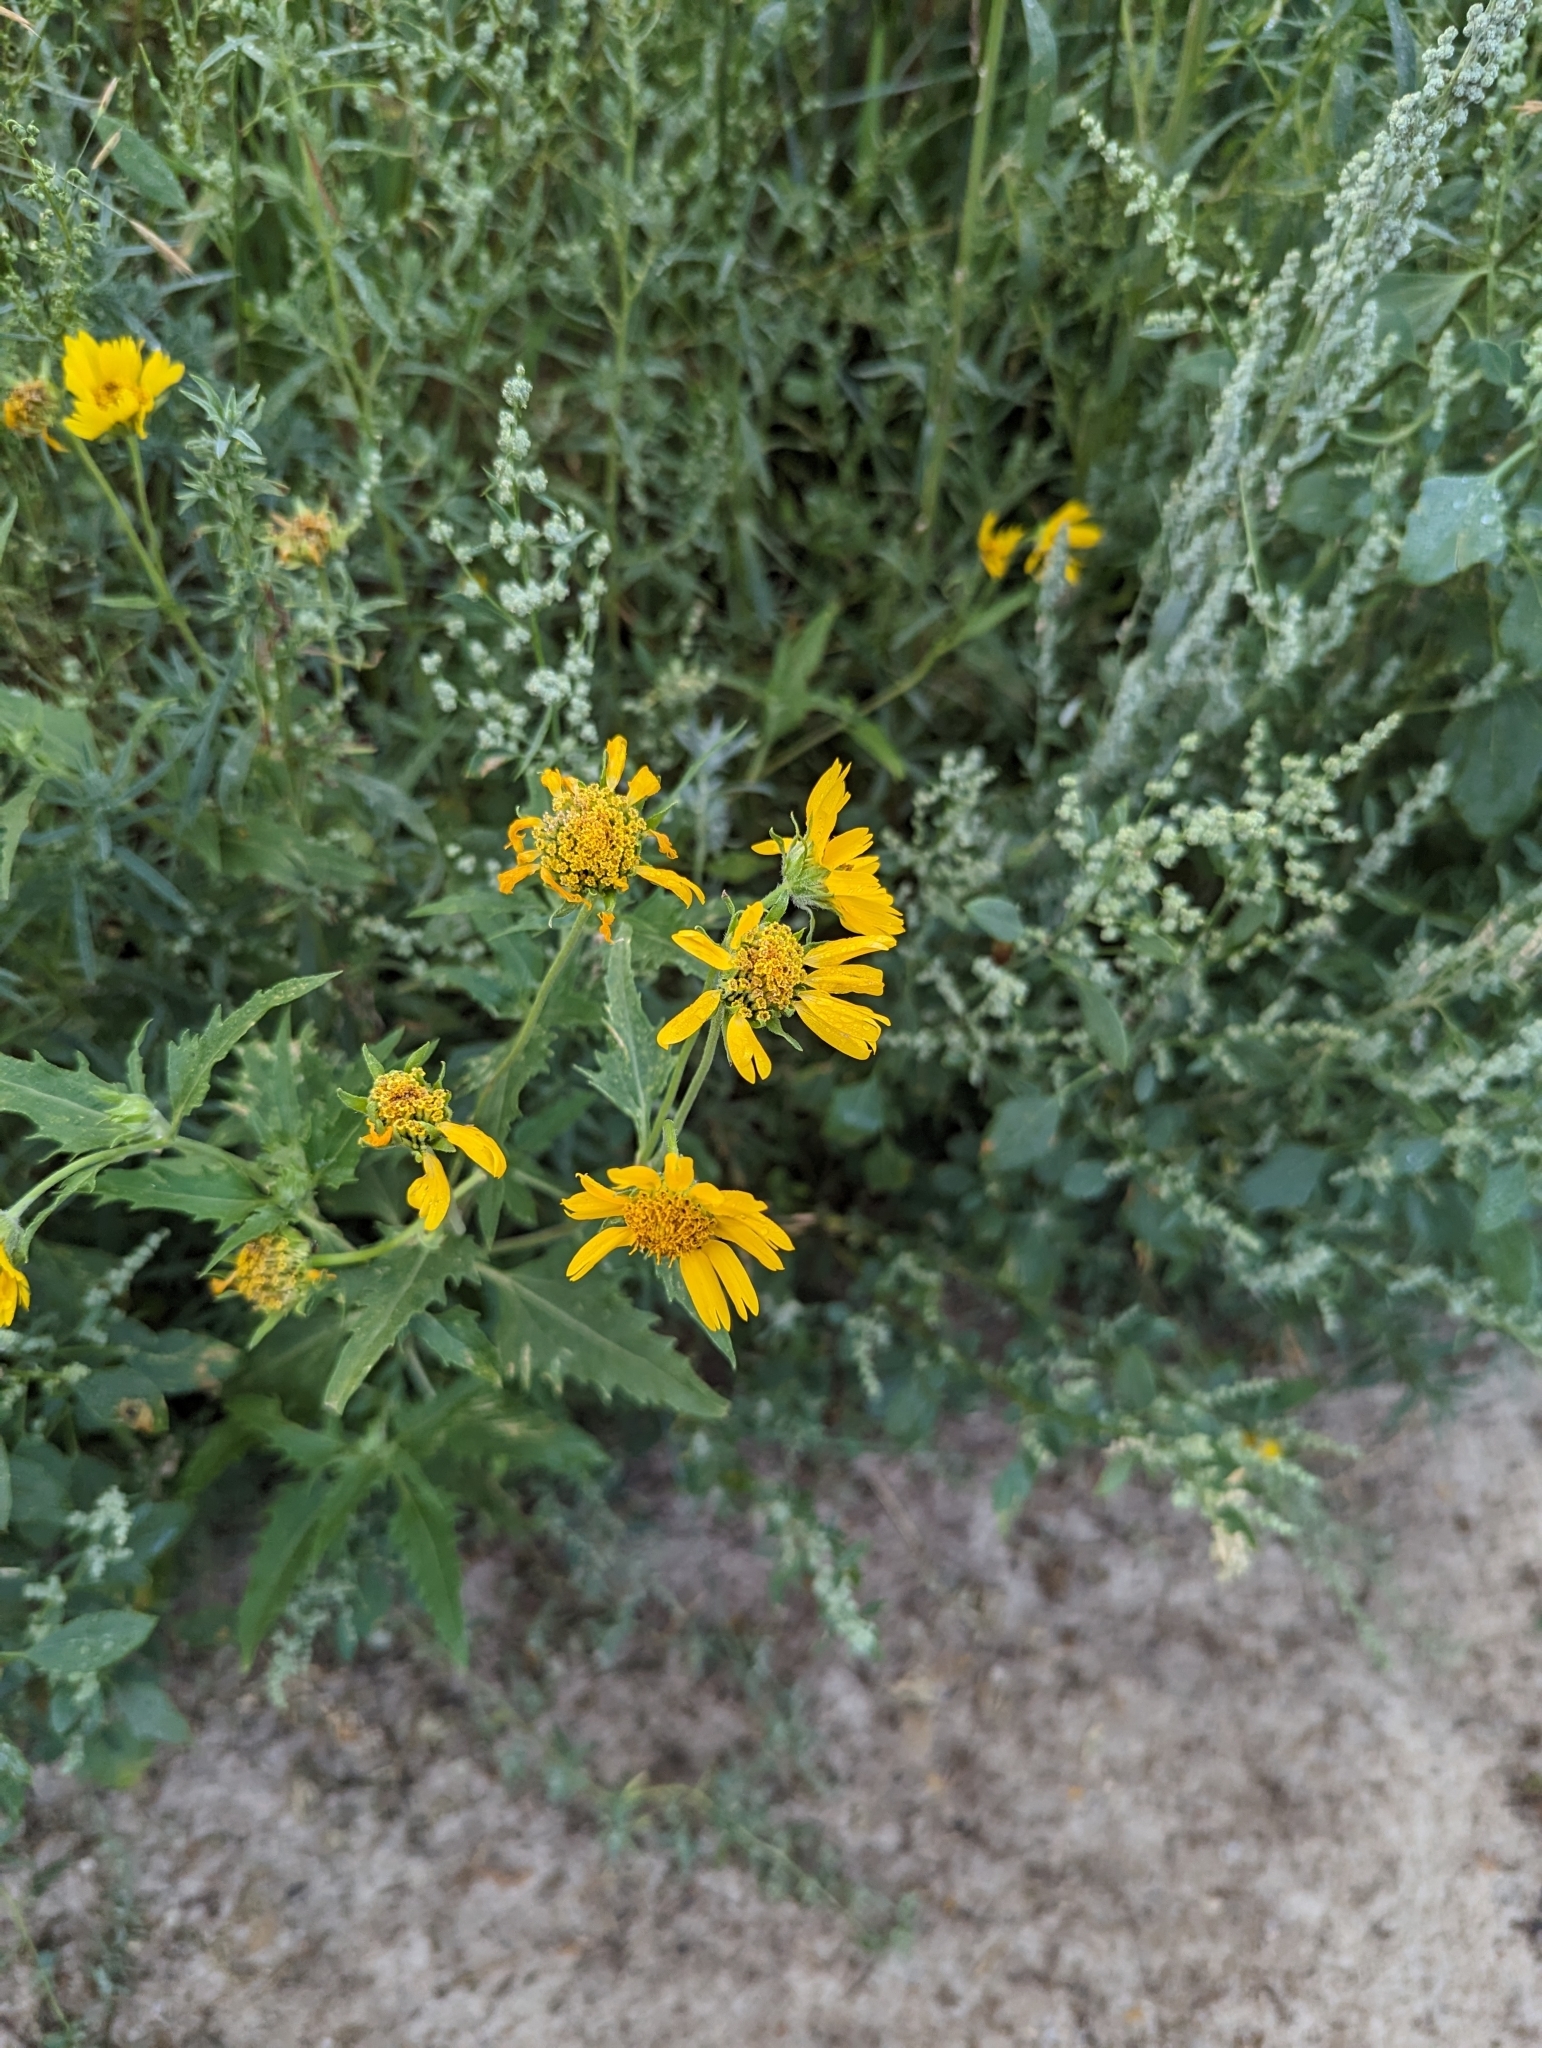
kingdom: Plantae
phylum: Tracheophyta
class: Magnoliopsida
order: Asterales
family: Asteraceae
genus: Verbesina
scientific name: Verbesina encelioides
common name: Golden crownbeard
